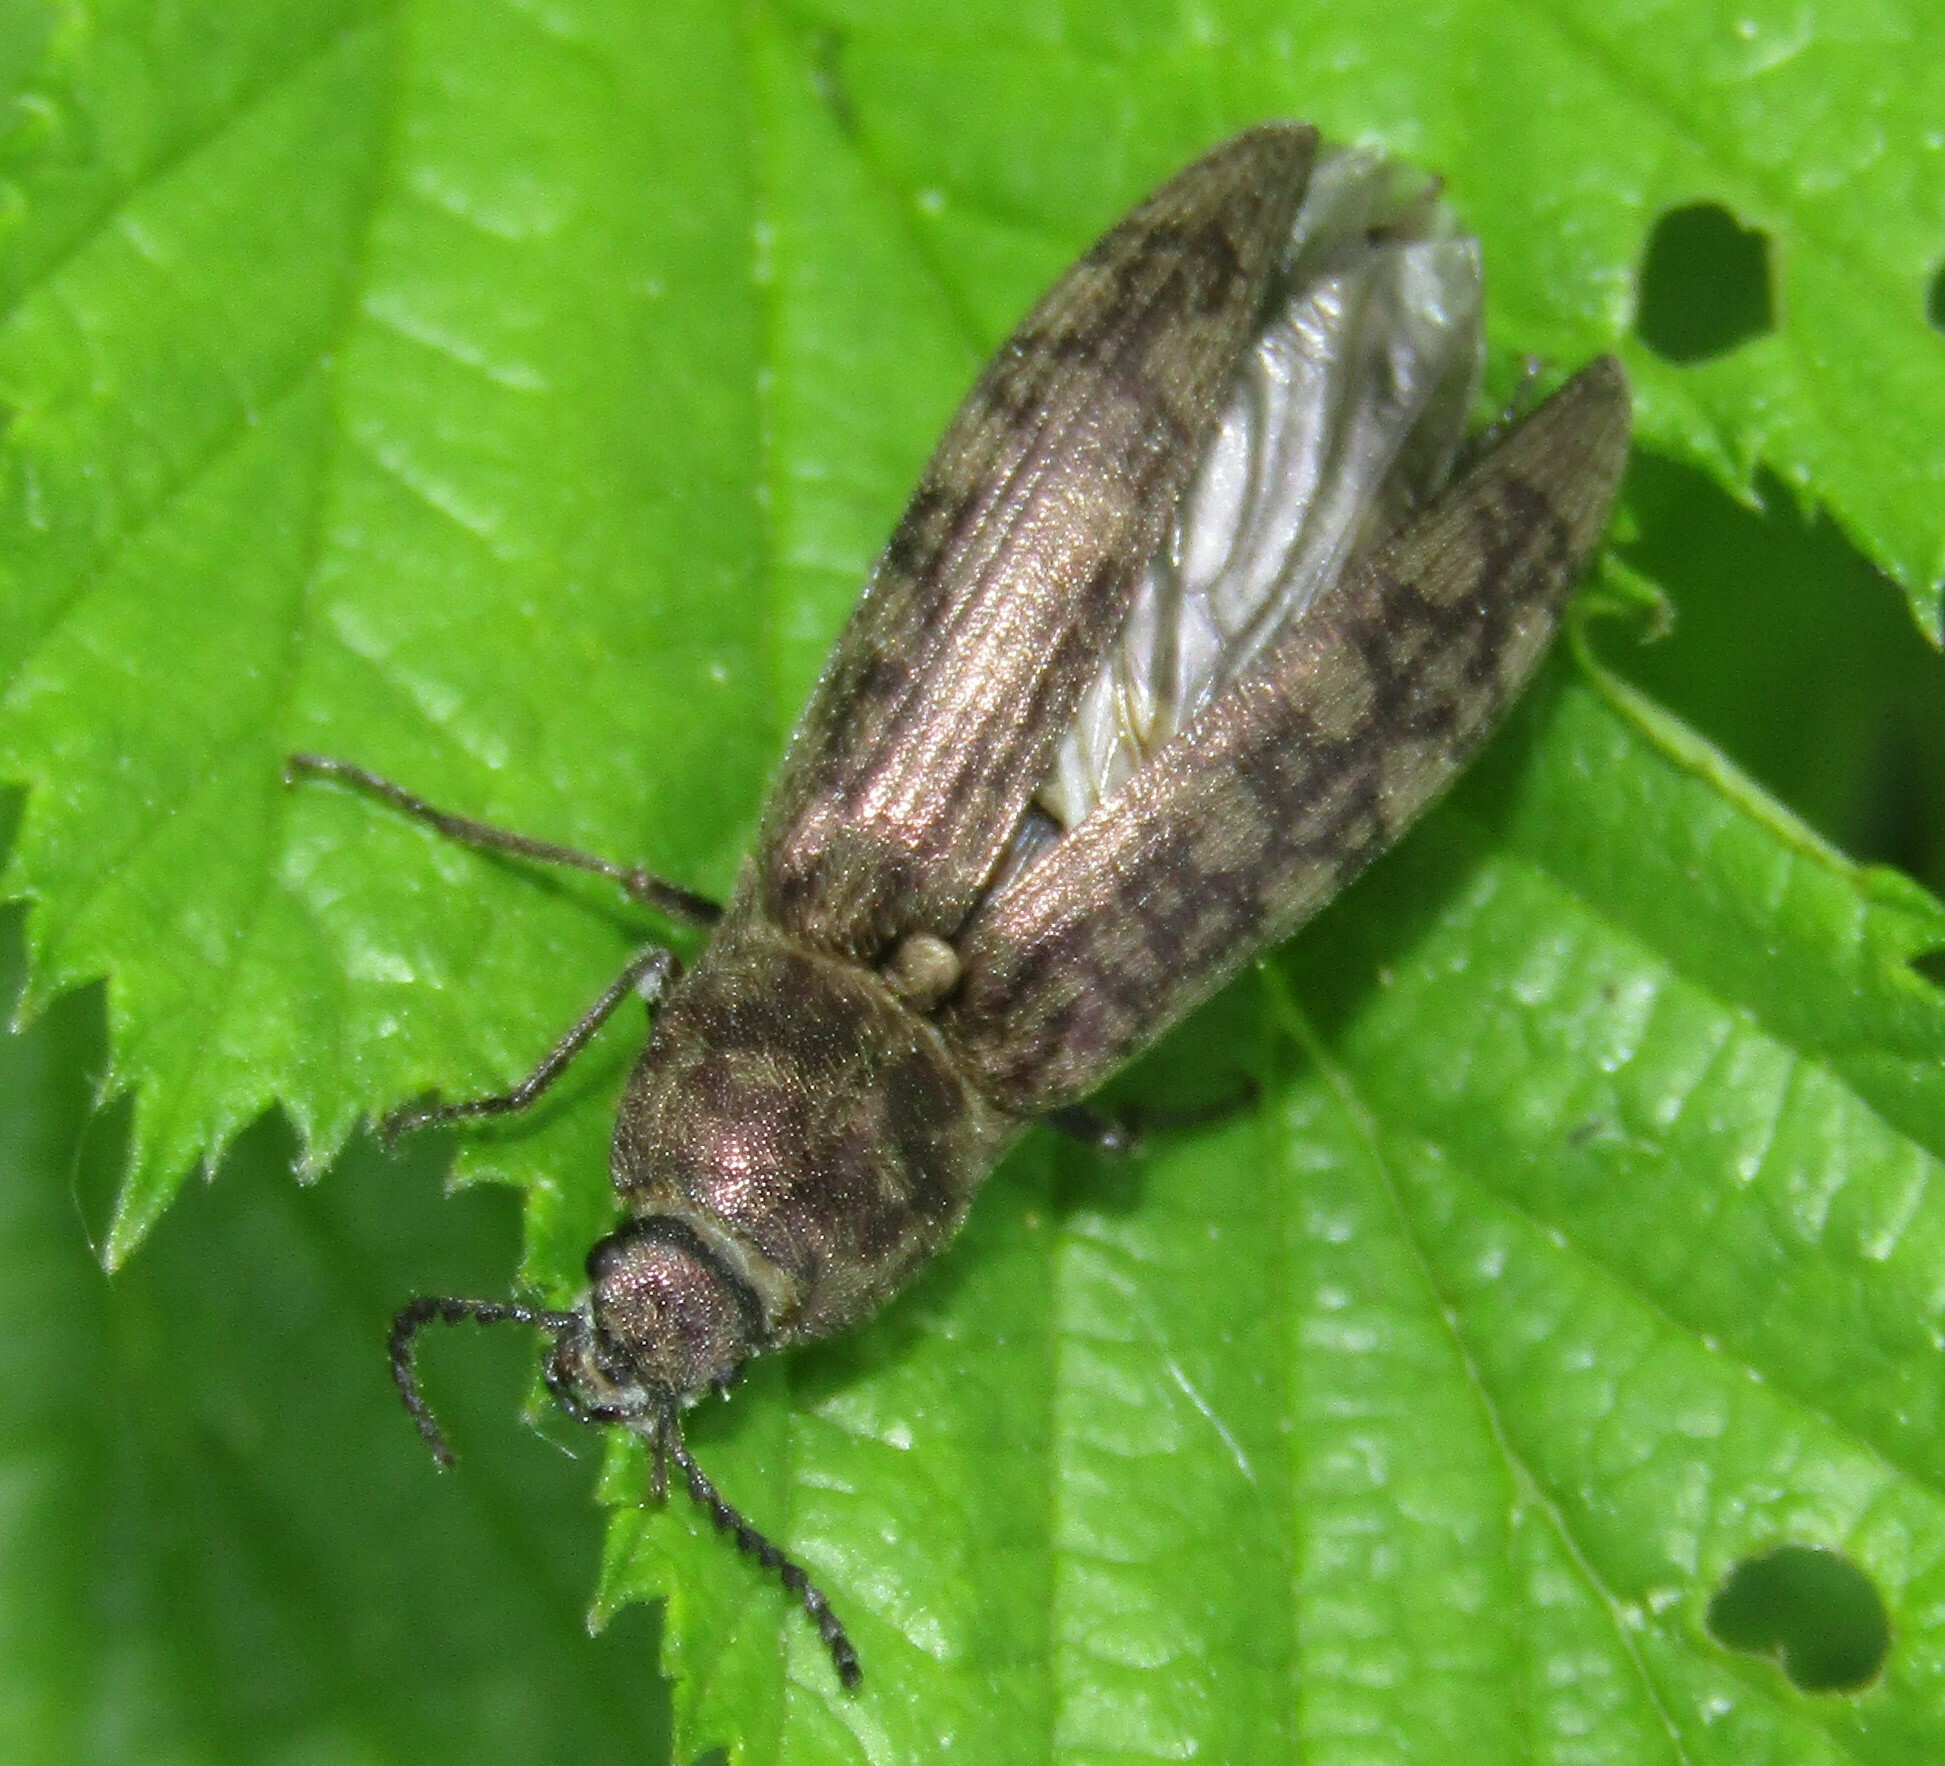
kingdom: Animalia
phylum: Arthropoda
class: Insecta
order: Coleoptera
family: Elateridae
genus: Actenicerus
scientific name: Actenicerus sjaelandicus
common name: Marsh click beetle
